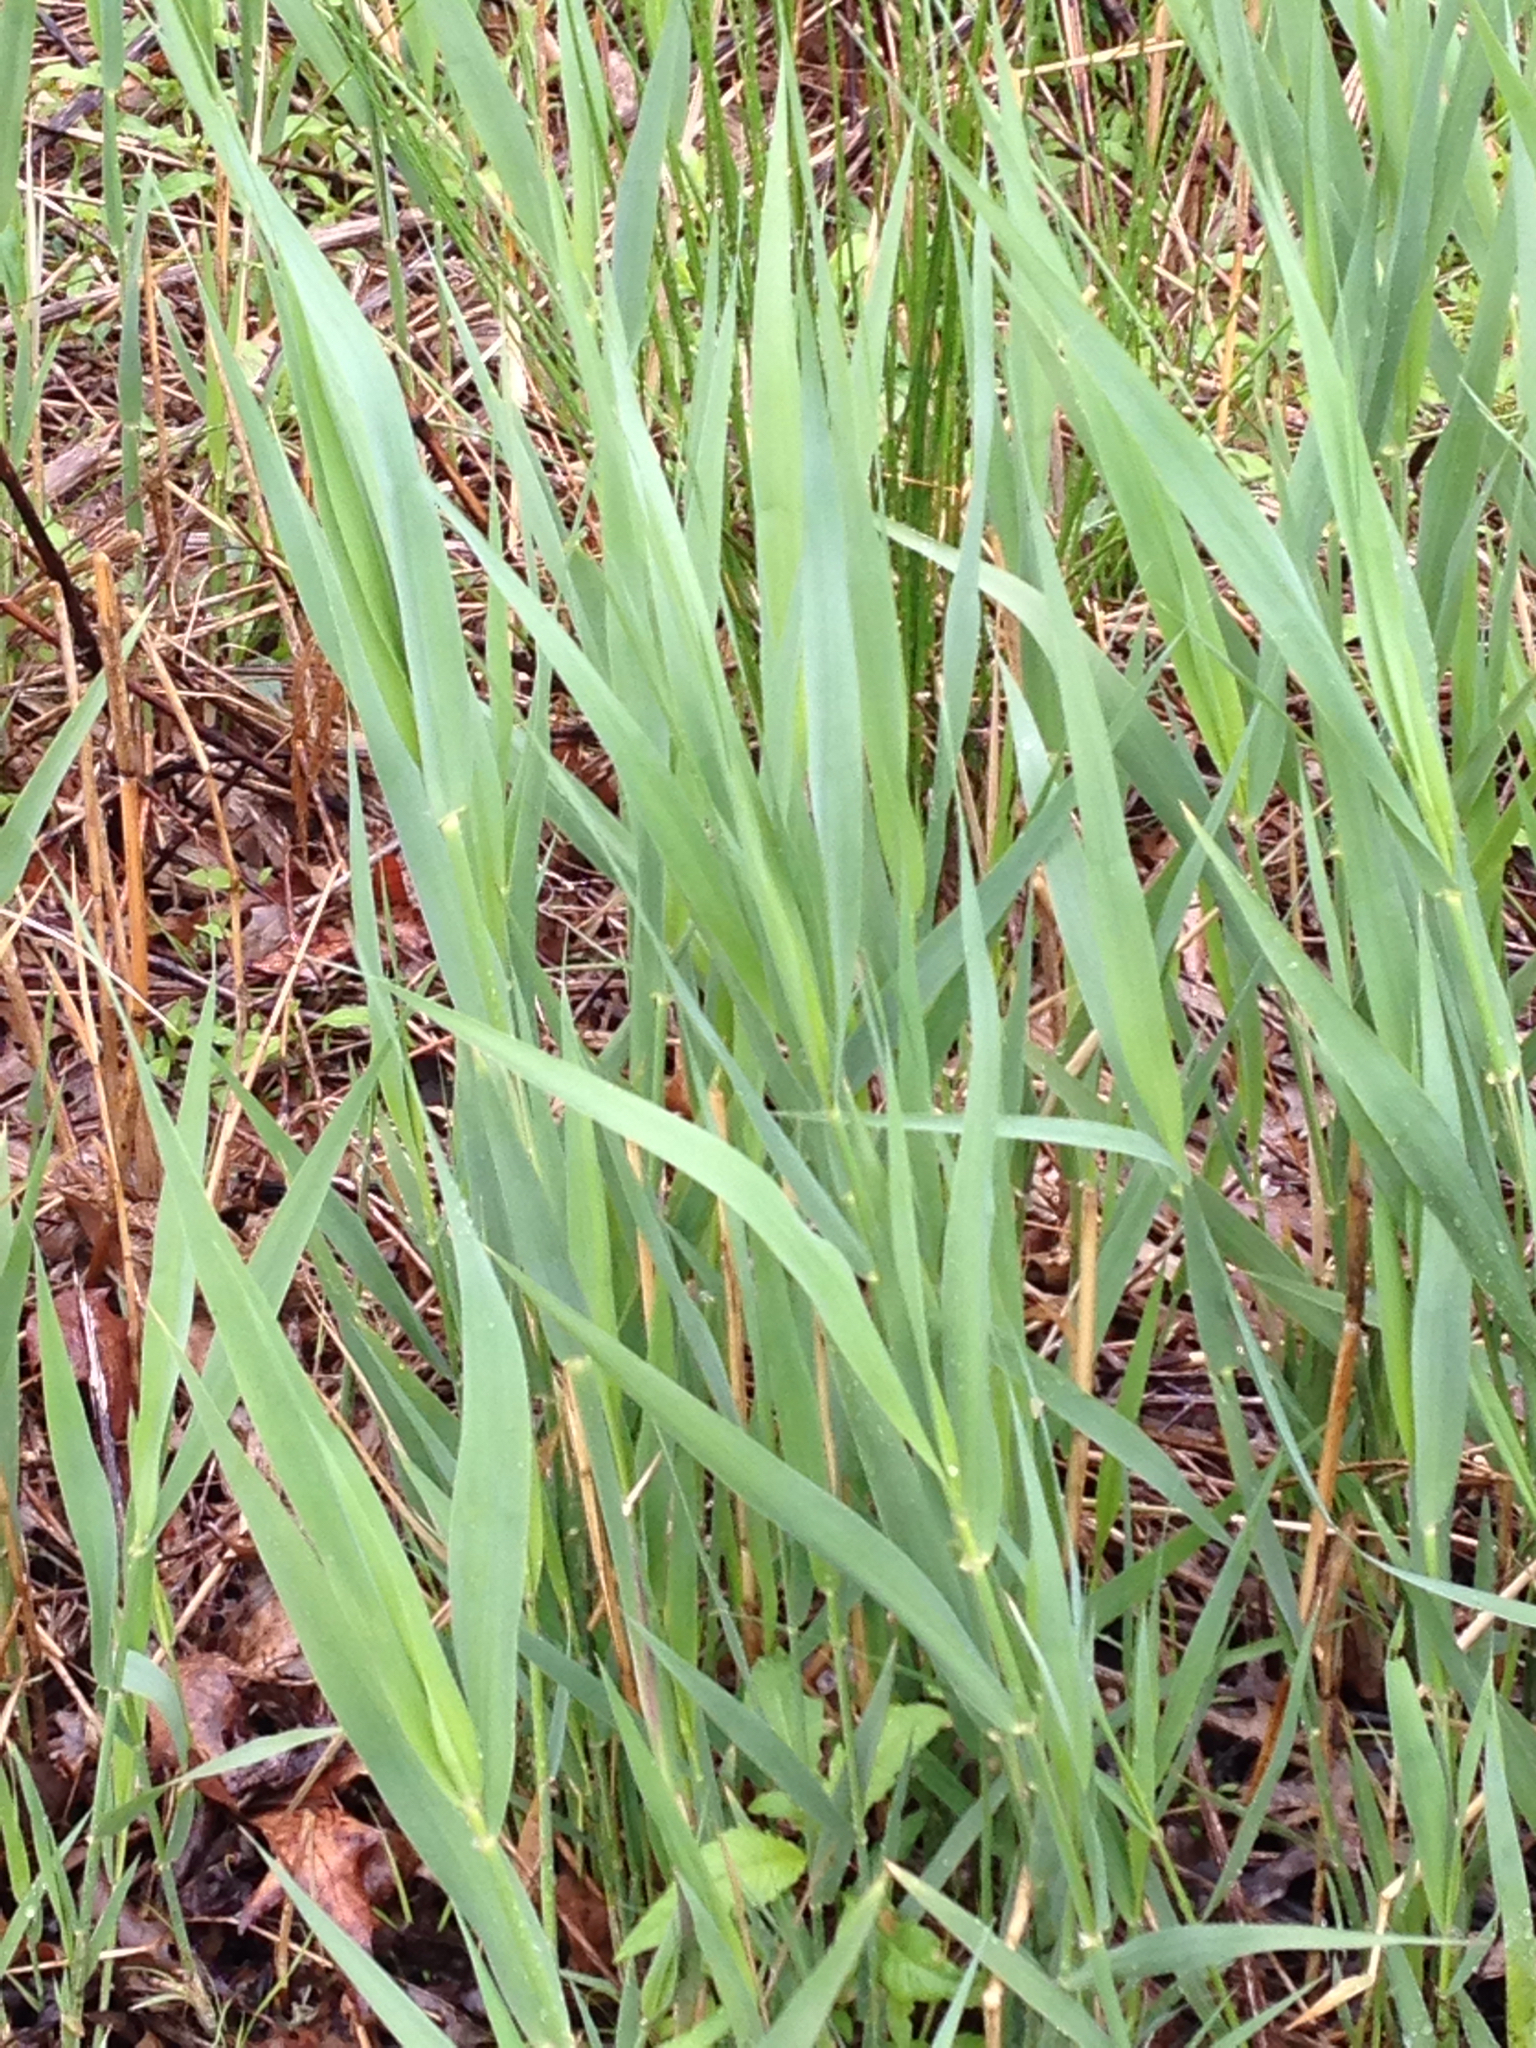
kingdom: Plantae
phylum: Tracheophyta
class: Liliopsida
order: Poales
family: Poaceae
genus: Phragmites
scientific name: Phragmites australis
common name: Common reed
